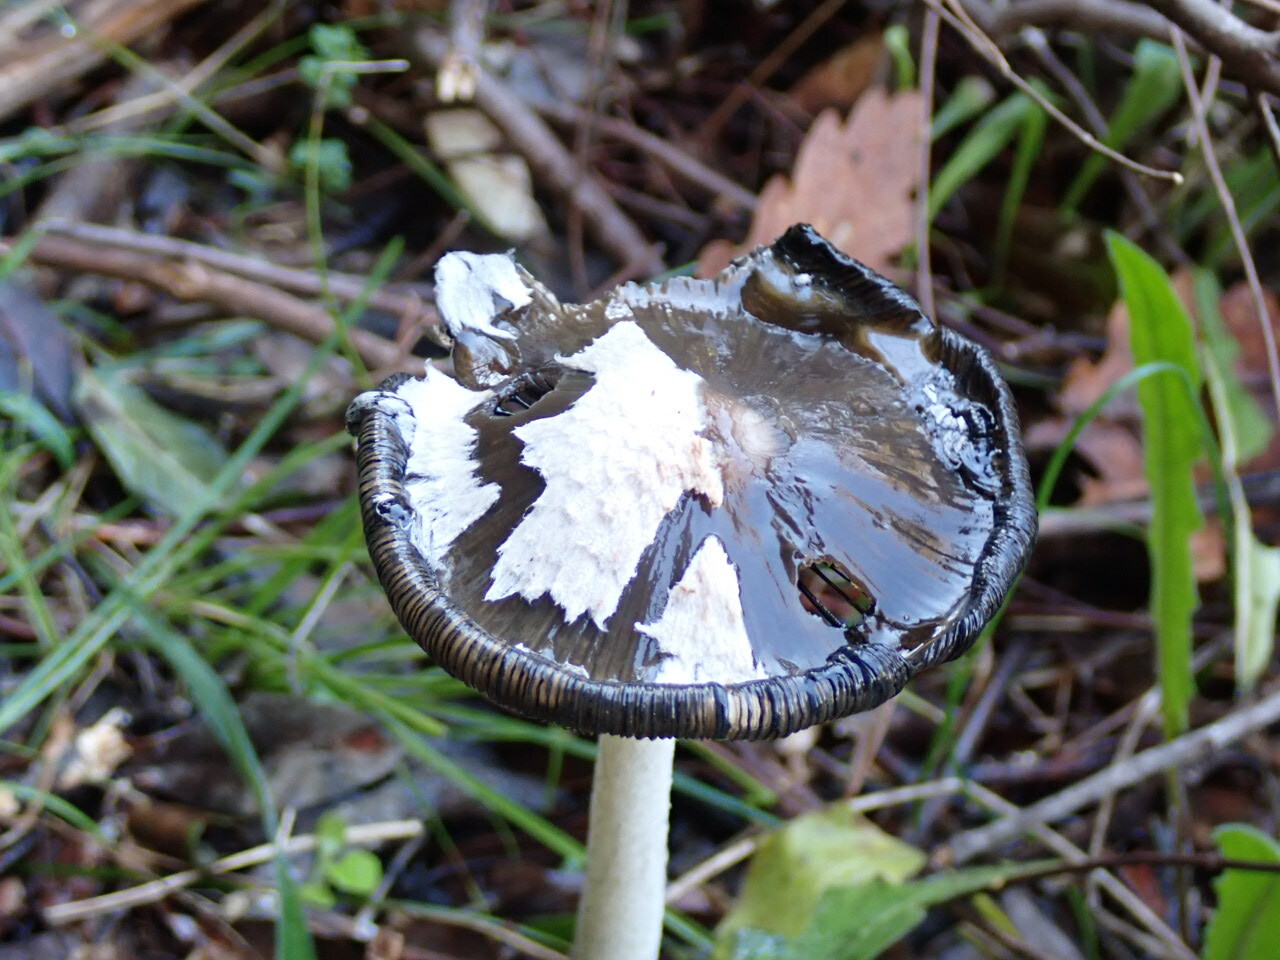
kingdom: Fungi
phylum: Basidiomycota
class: Agaricomycetes
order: Agaricales
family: Psathyrellaceae
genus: Coprinopsis
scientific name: Coprinopsis picacea
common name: Magpie inkcap
